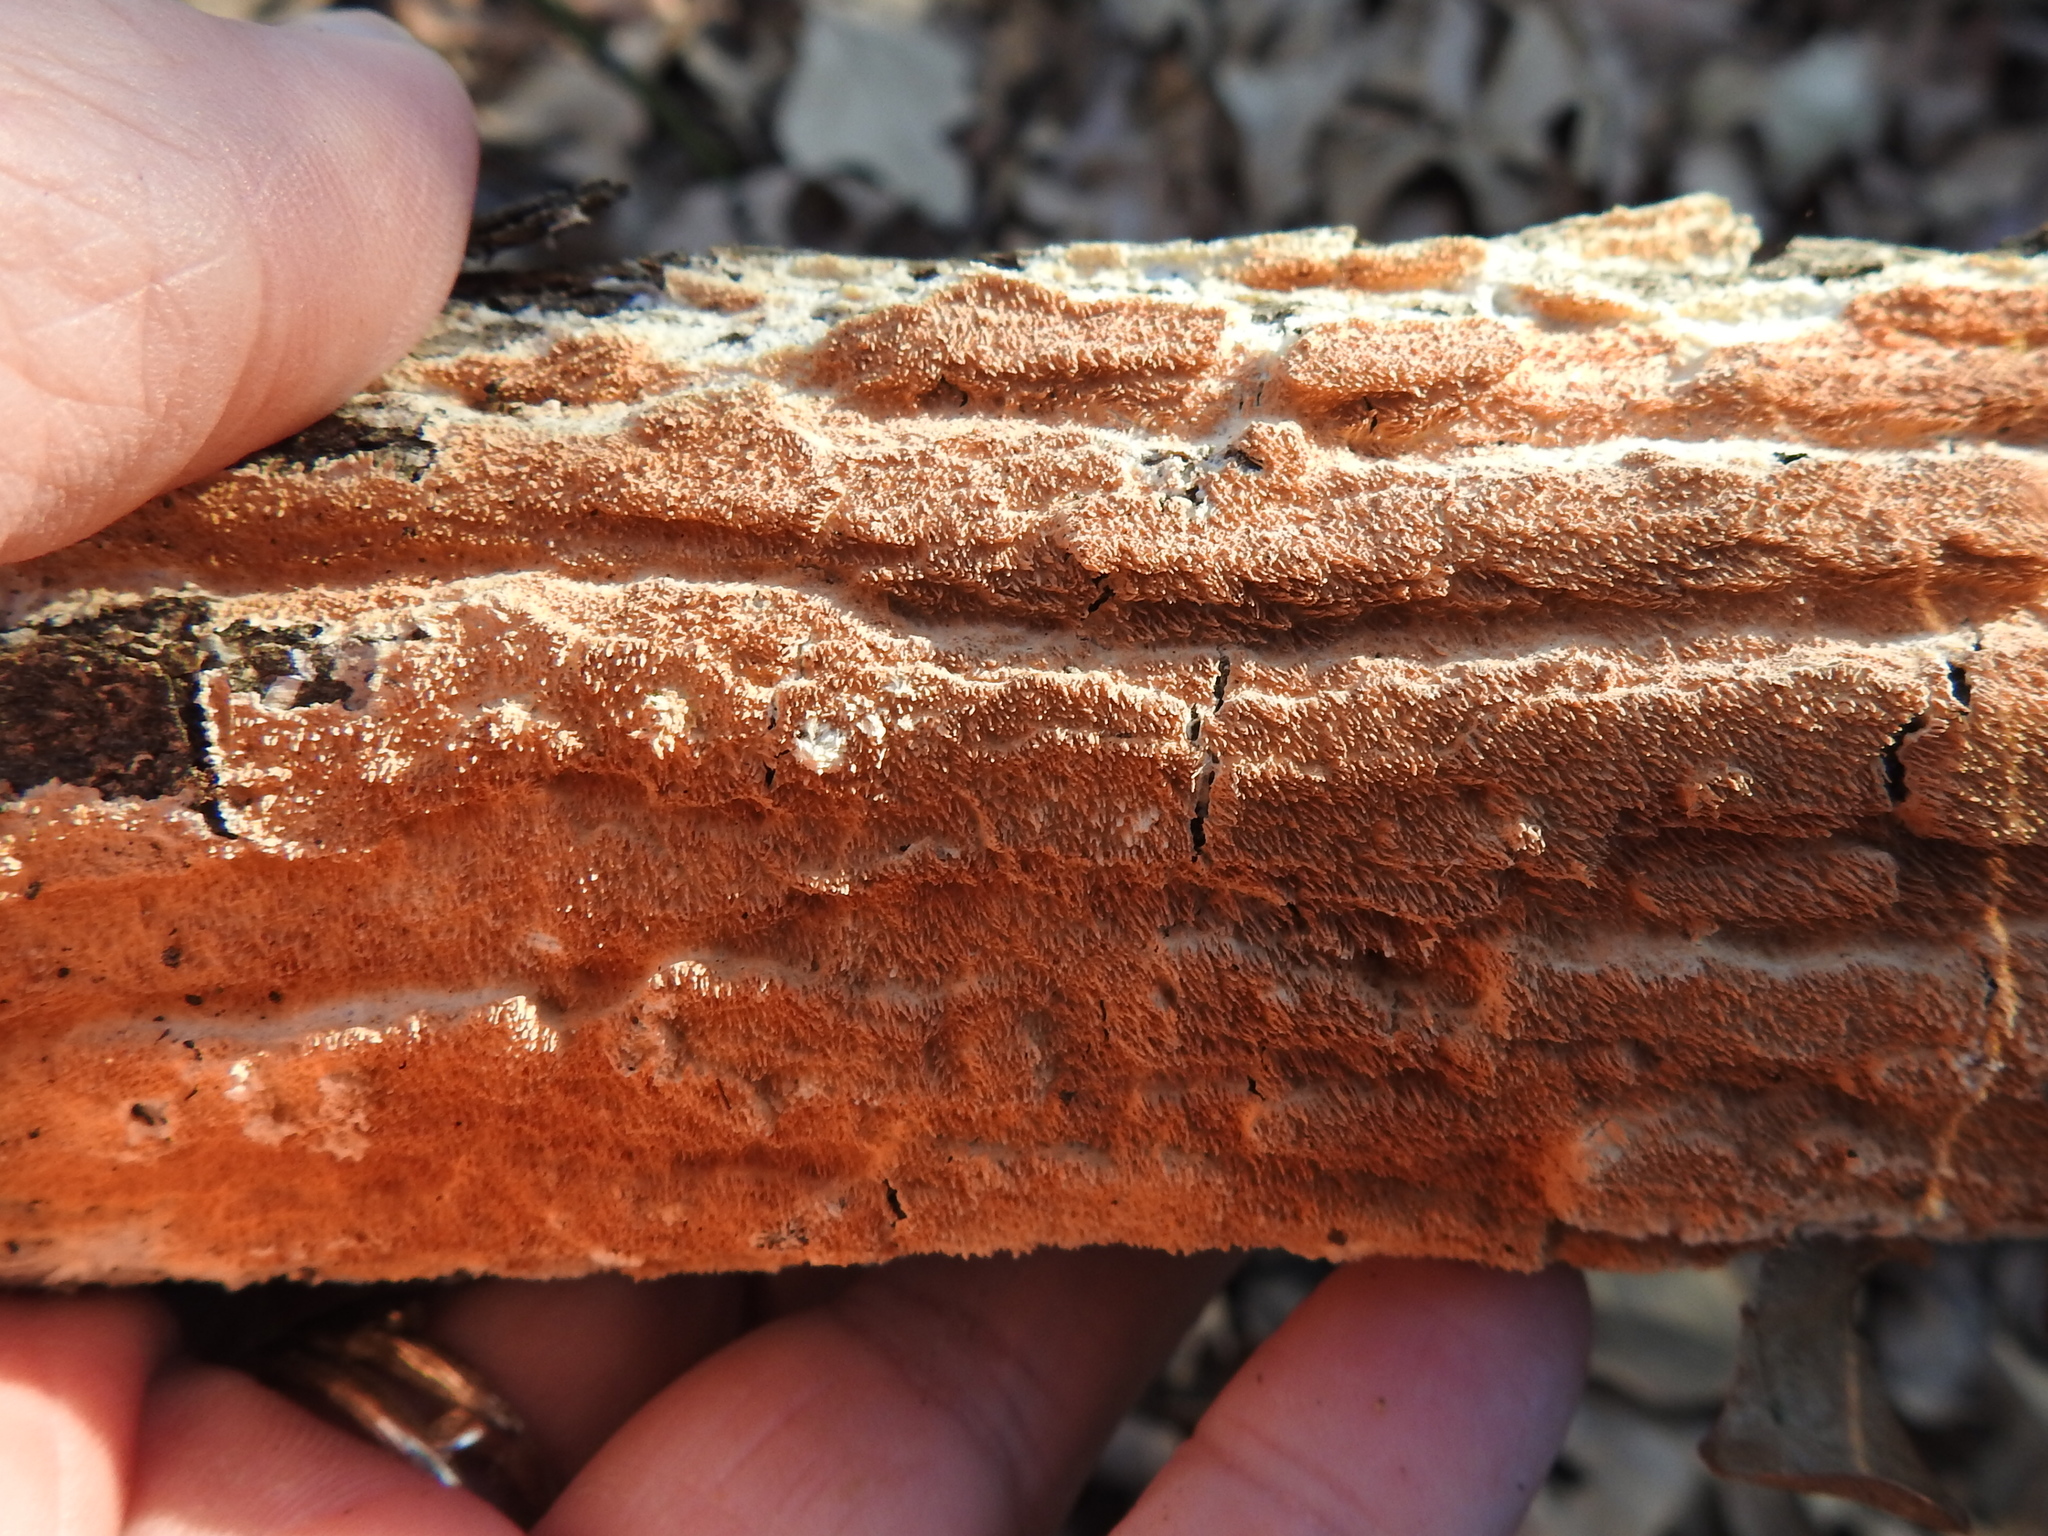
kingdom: Fungi
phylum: Basidiomycota
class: Agaricomycetes
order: Polyporales
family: Steccherinaceae
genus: Steccherinum
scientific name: Steccherinum ochraceum
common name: Ochre spreading tooth
